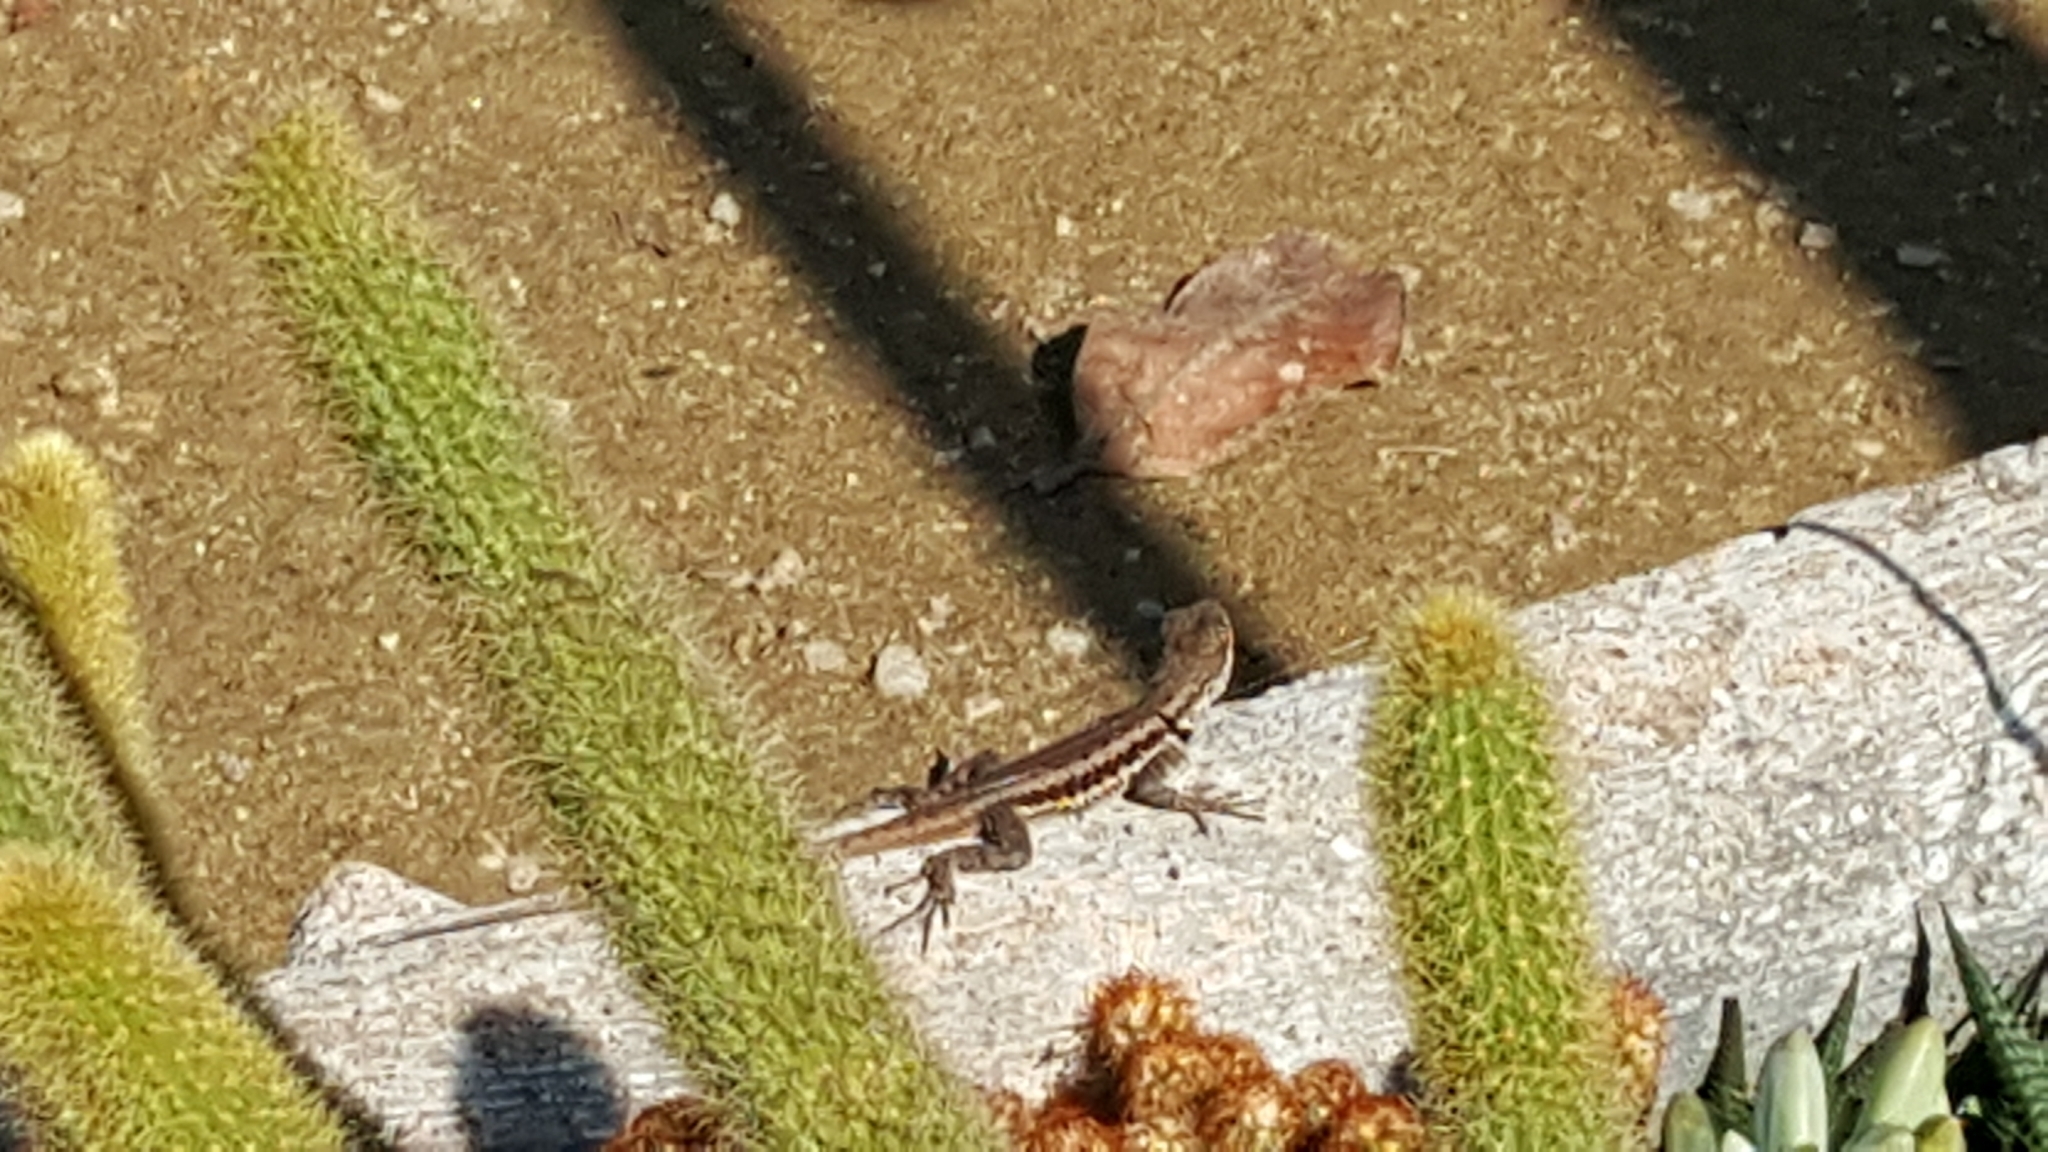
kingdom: Animalia
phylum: Chordata
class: Squamata
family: Tropiduridae
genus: Tropidurus
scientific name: Tropidurus torquatus
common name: Amazon lava lizard
